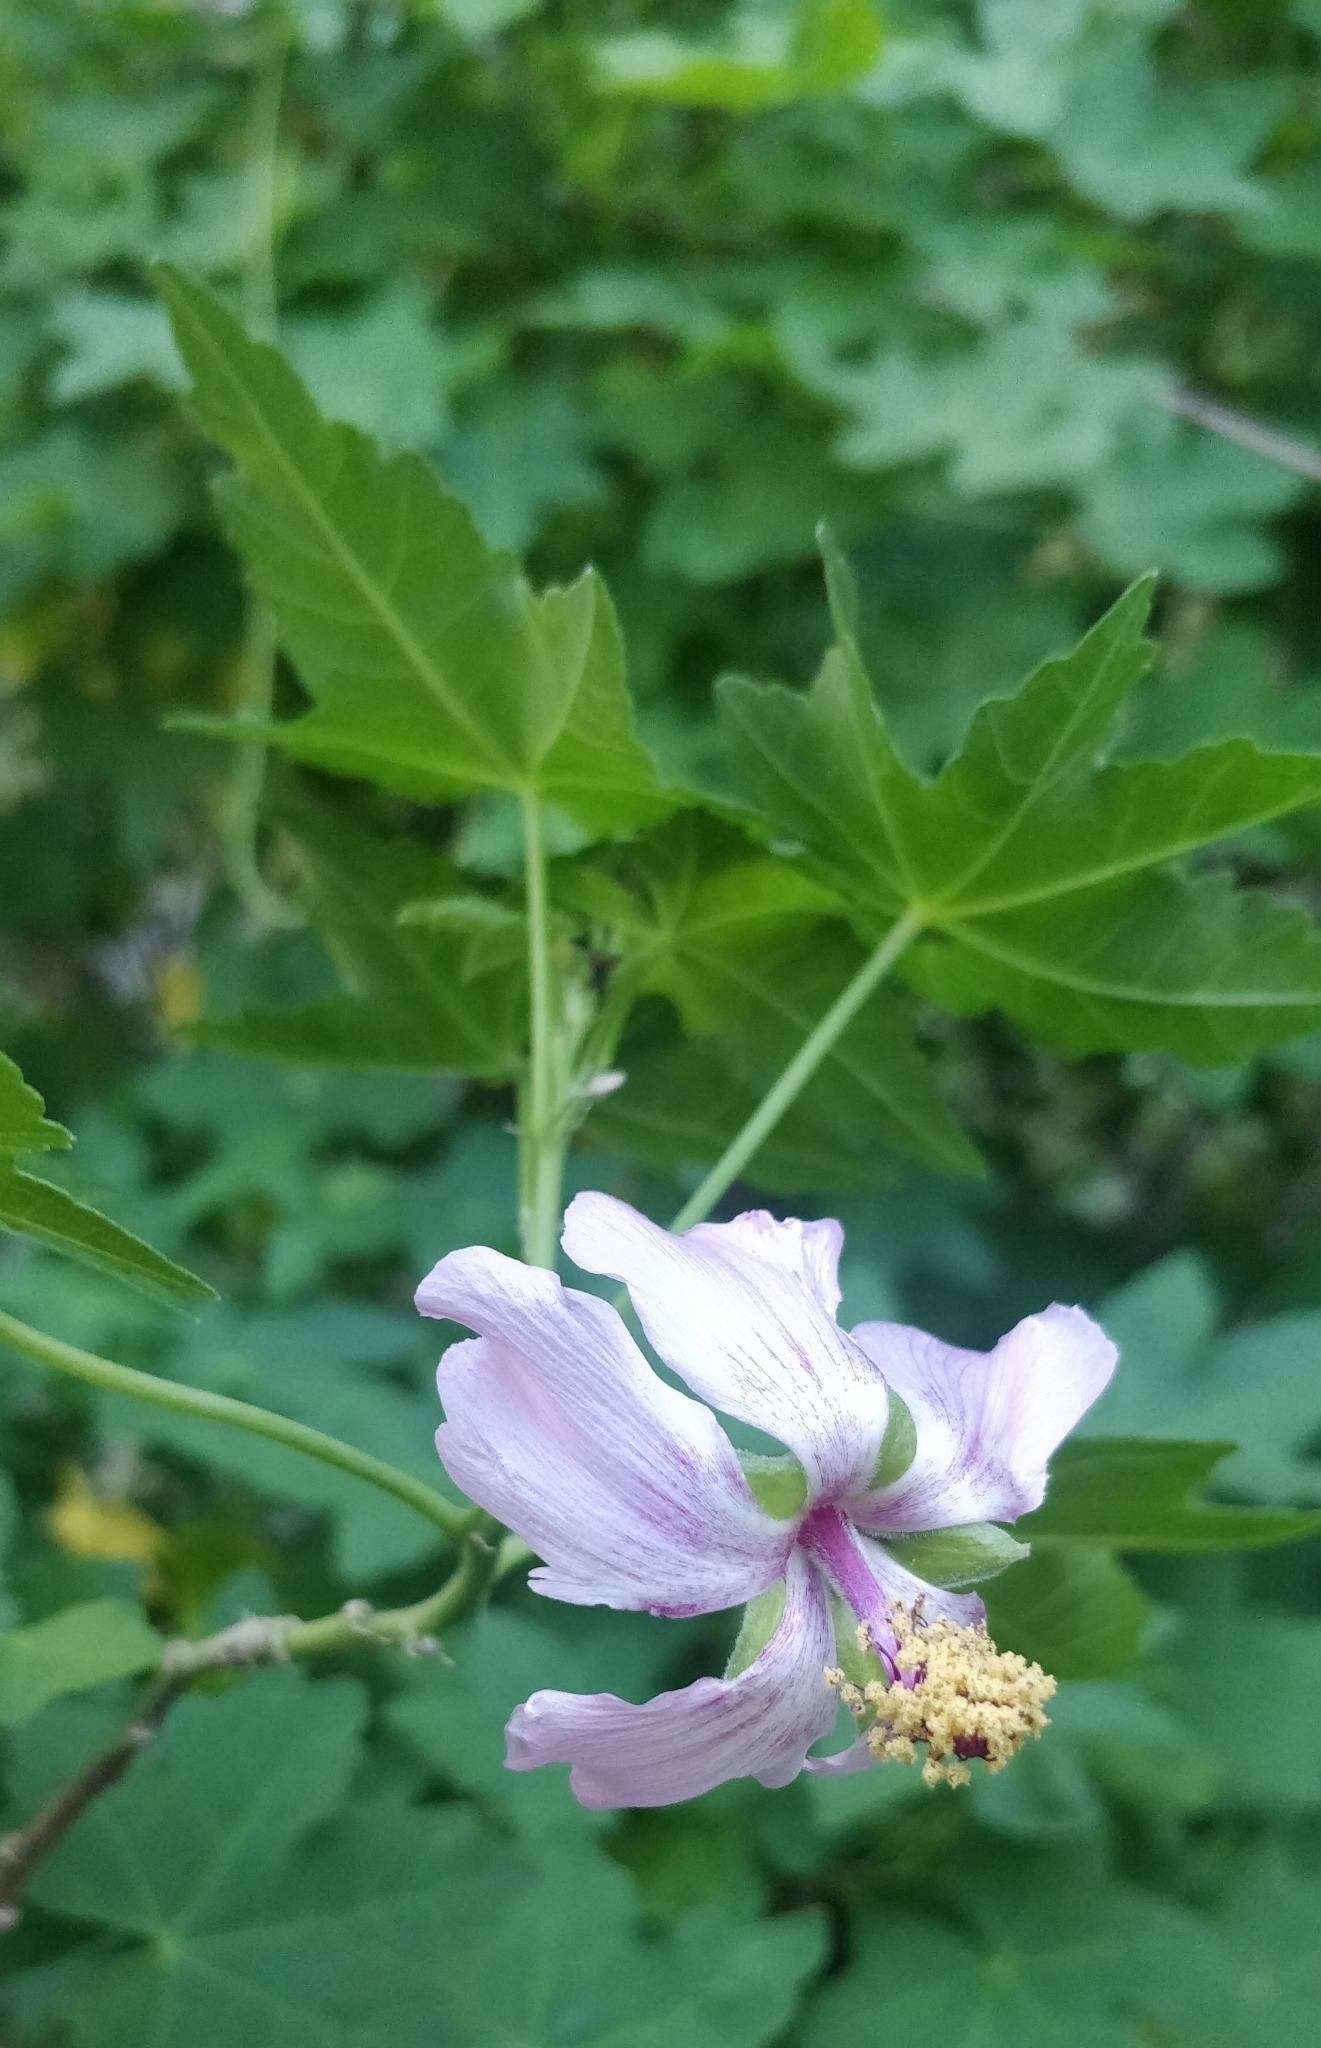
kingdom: Plantae
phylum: Tracheophyta
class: Magnoliopsida
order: Malvales
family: Malvaceae
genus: Malva
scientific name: Malva acerifolia
